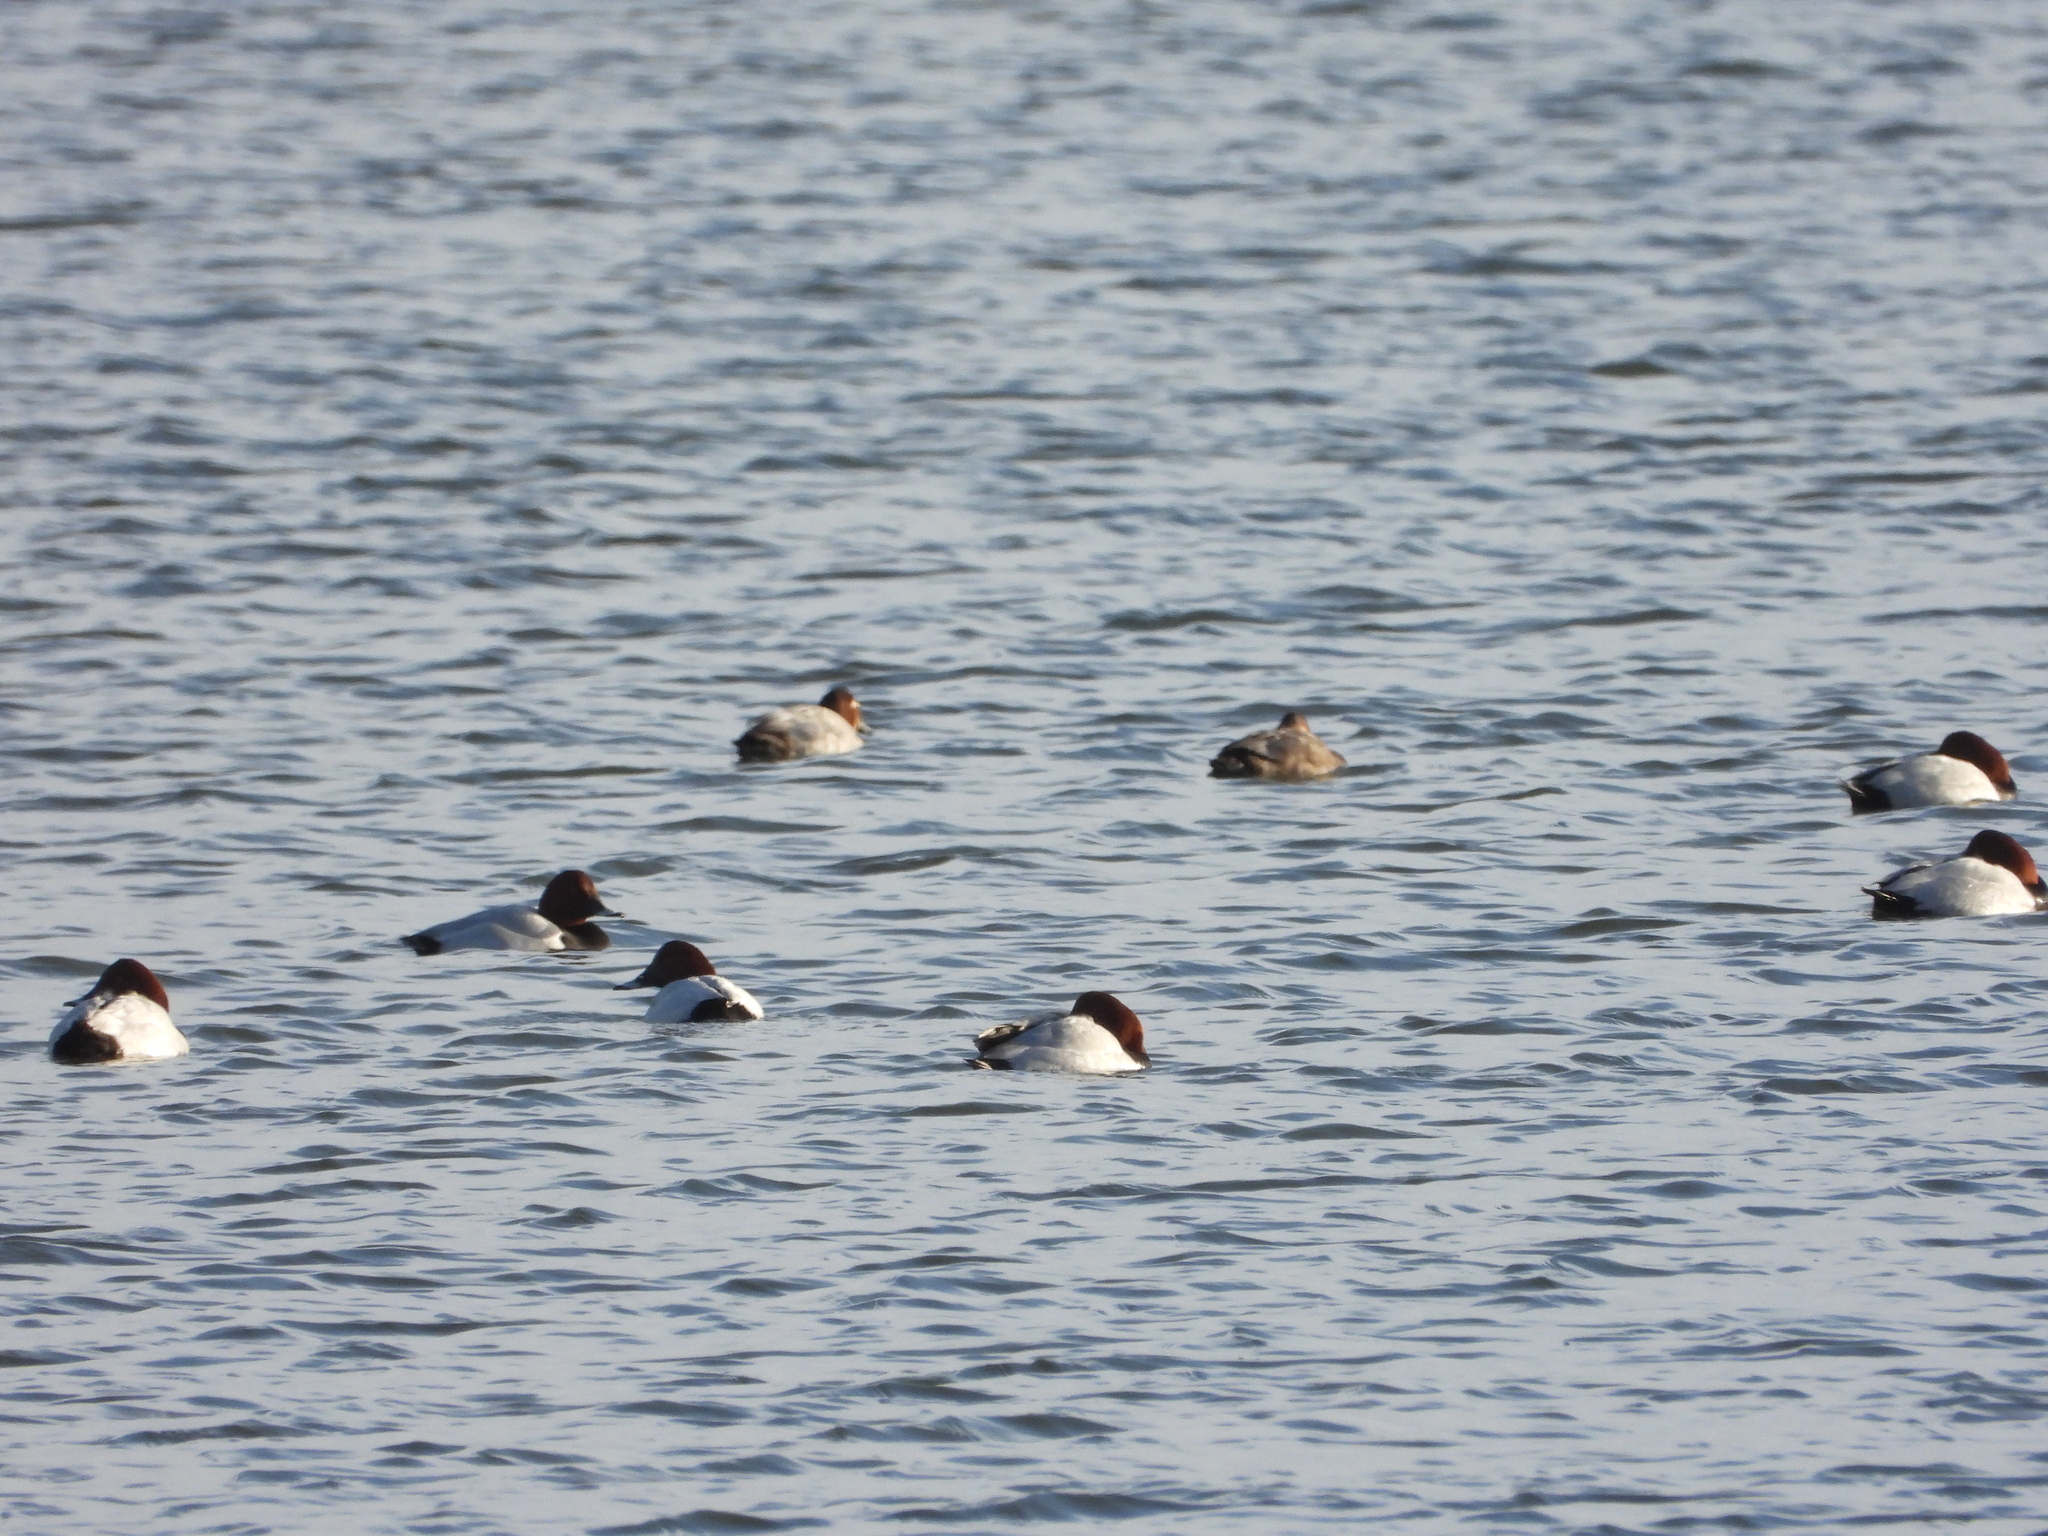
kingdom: Animalia
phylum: Chordata
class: Aves
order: Anseriformes
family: Anatidae
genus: Aythya
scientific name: Aythya ferina
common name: Common pochard
